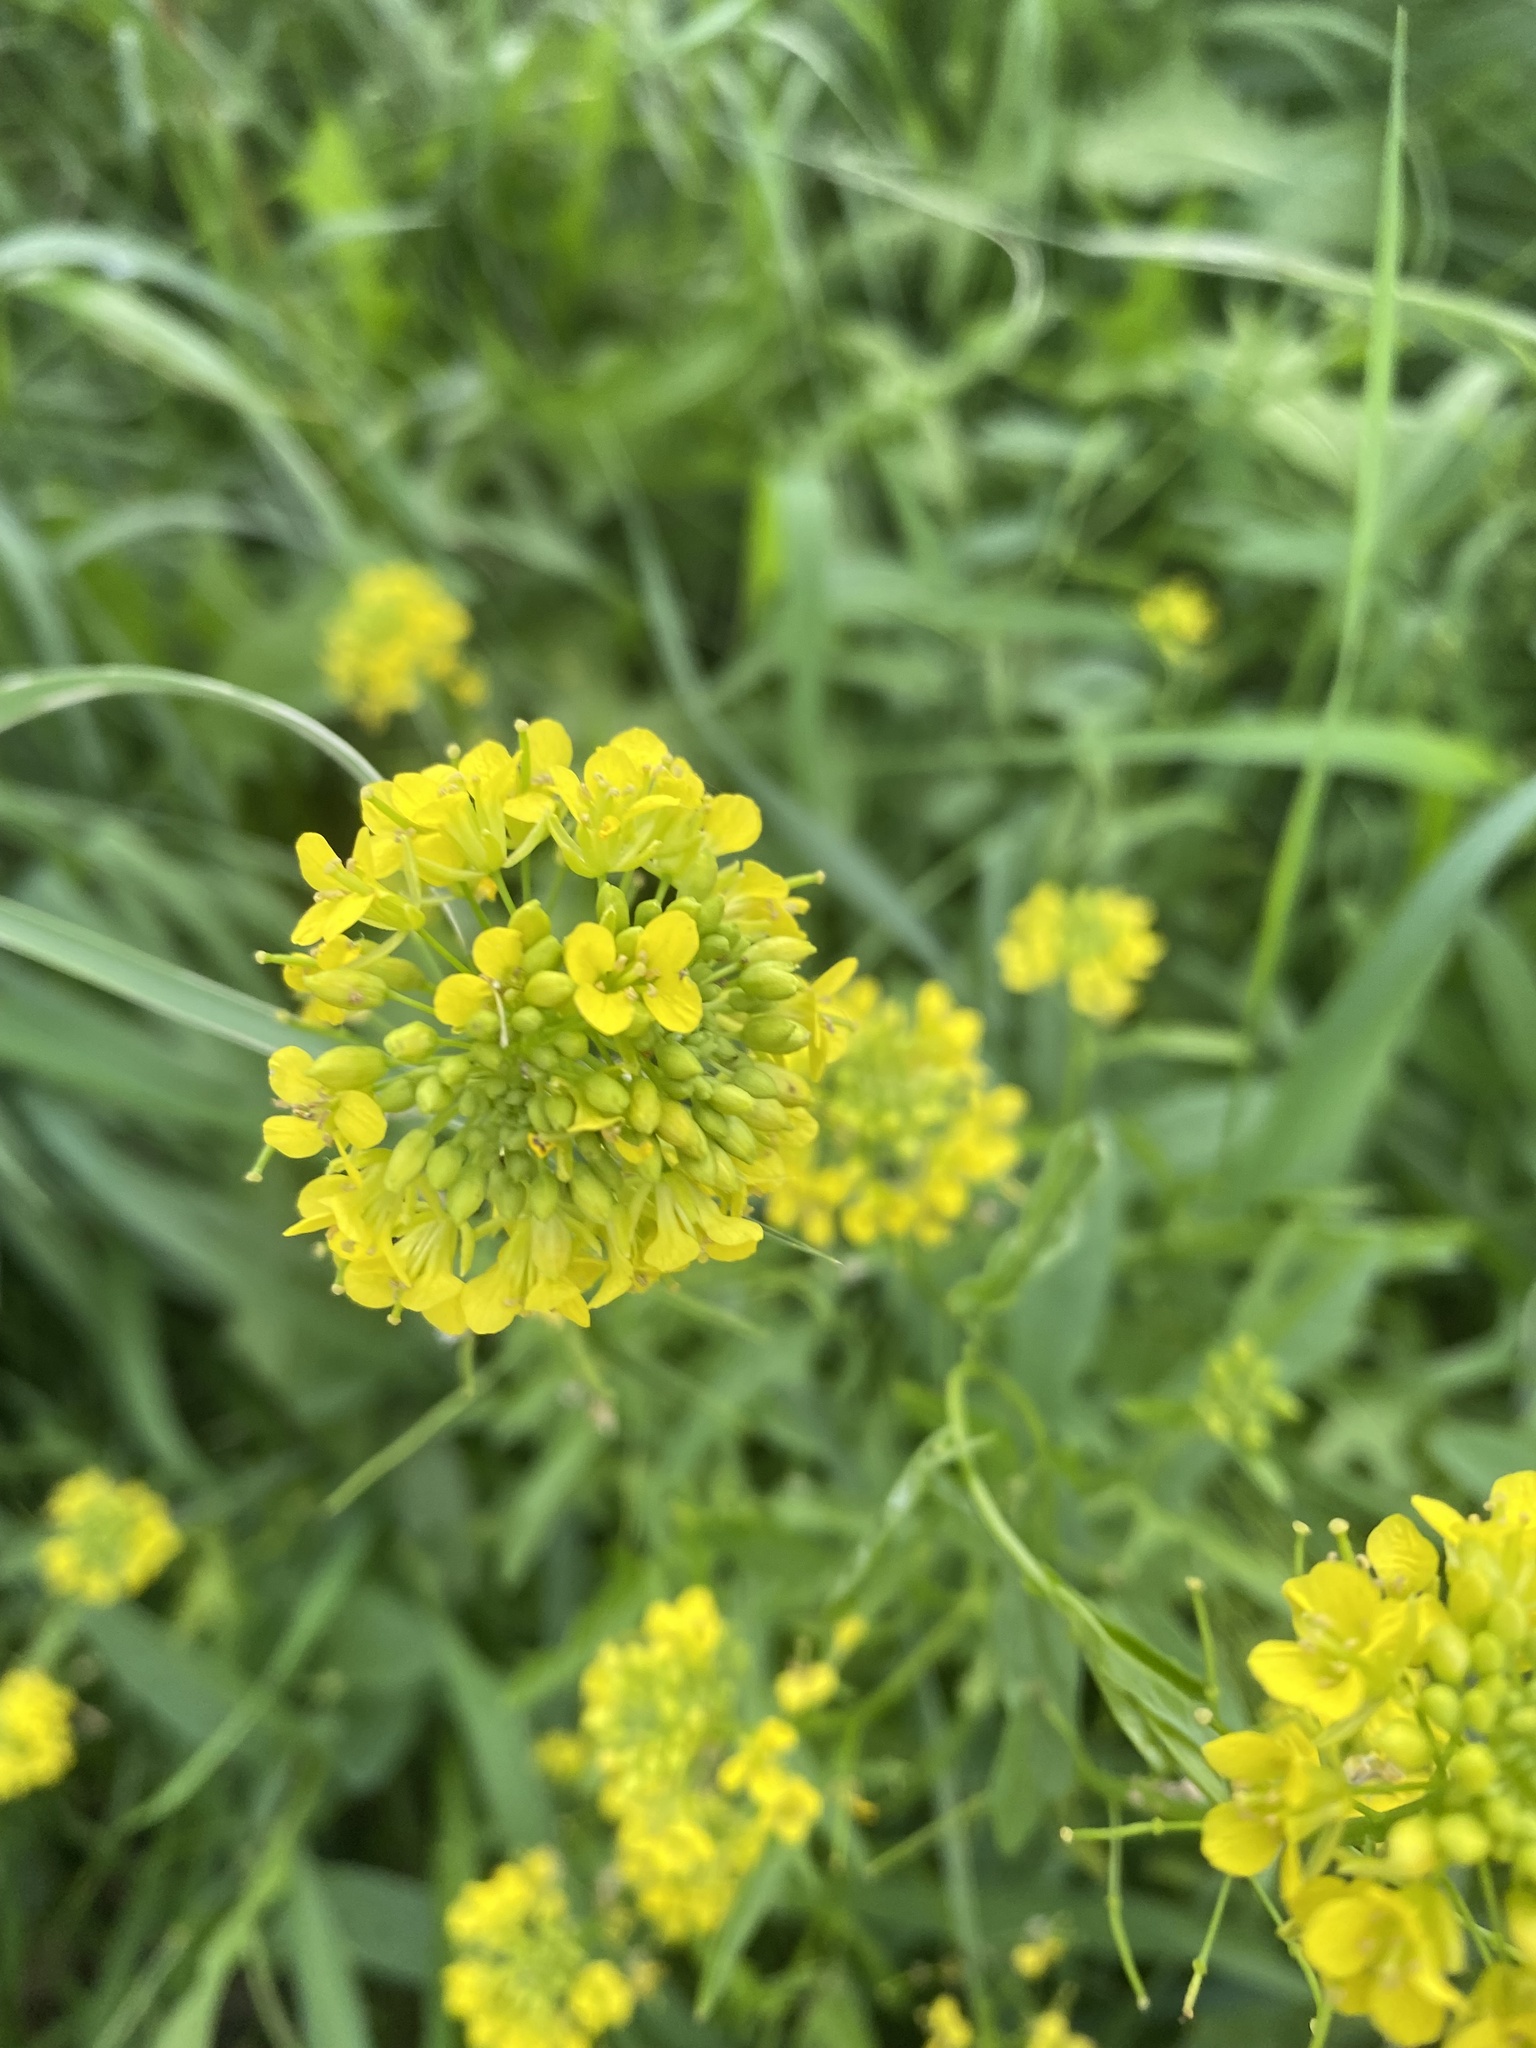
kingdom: Plantae
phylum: Tracheophyta
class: Magnoliopsida
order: Brassicales
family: Brassicaceae
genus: Sisymbrium
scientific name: Sisymbrium loeselii
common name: False london-rocket
